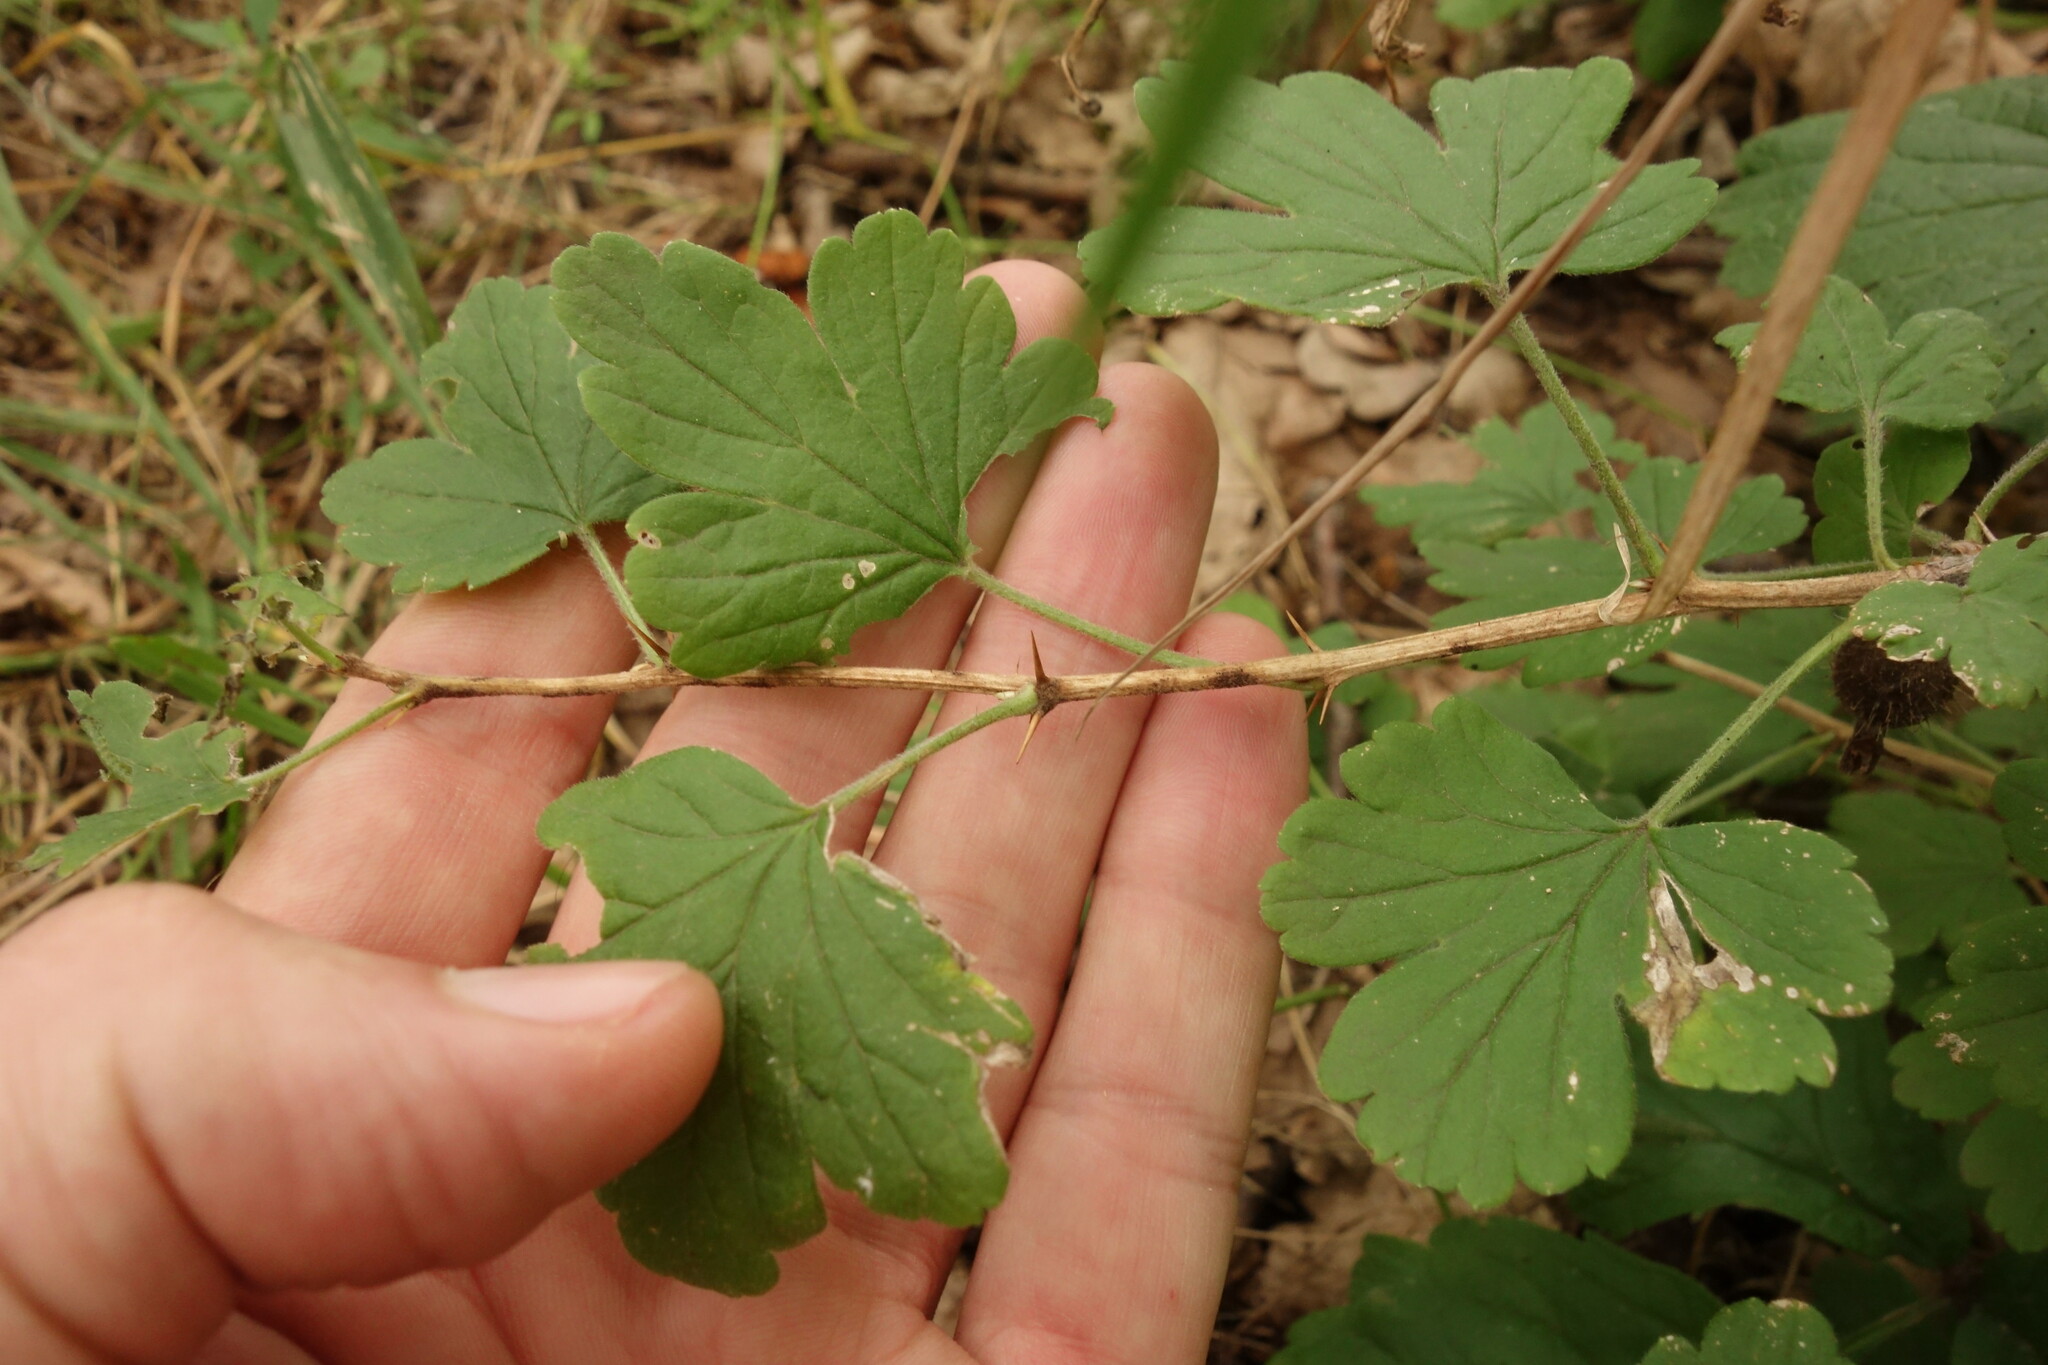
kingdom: Plantae
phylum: Tracheophyta
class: Magnoliopsida
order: Saxifragales
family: Grossulariaceae
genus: Ribes
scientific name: Ribes uva-crispa
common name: Gooseberry
